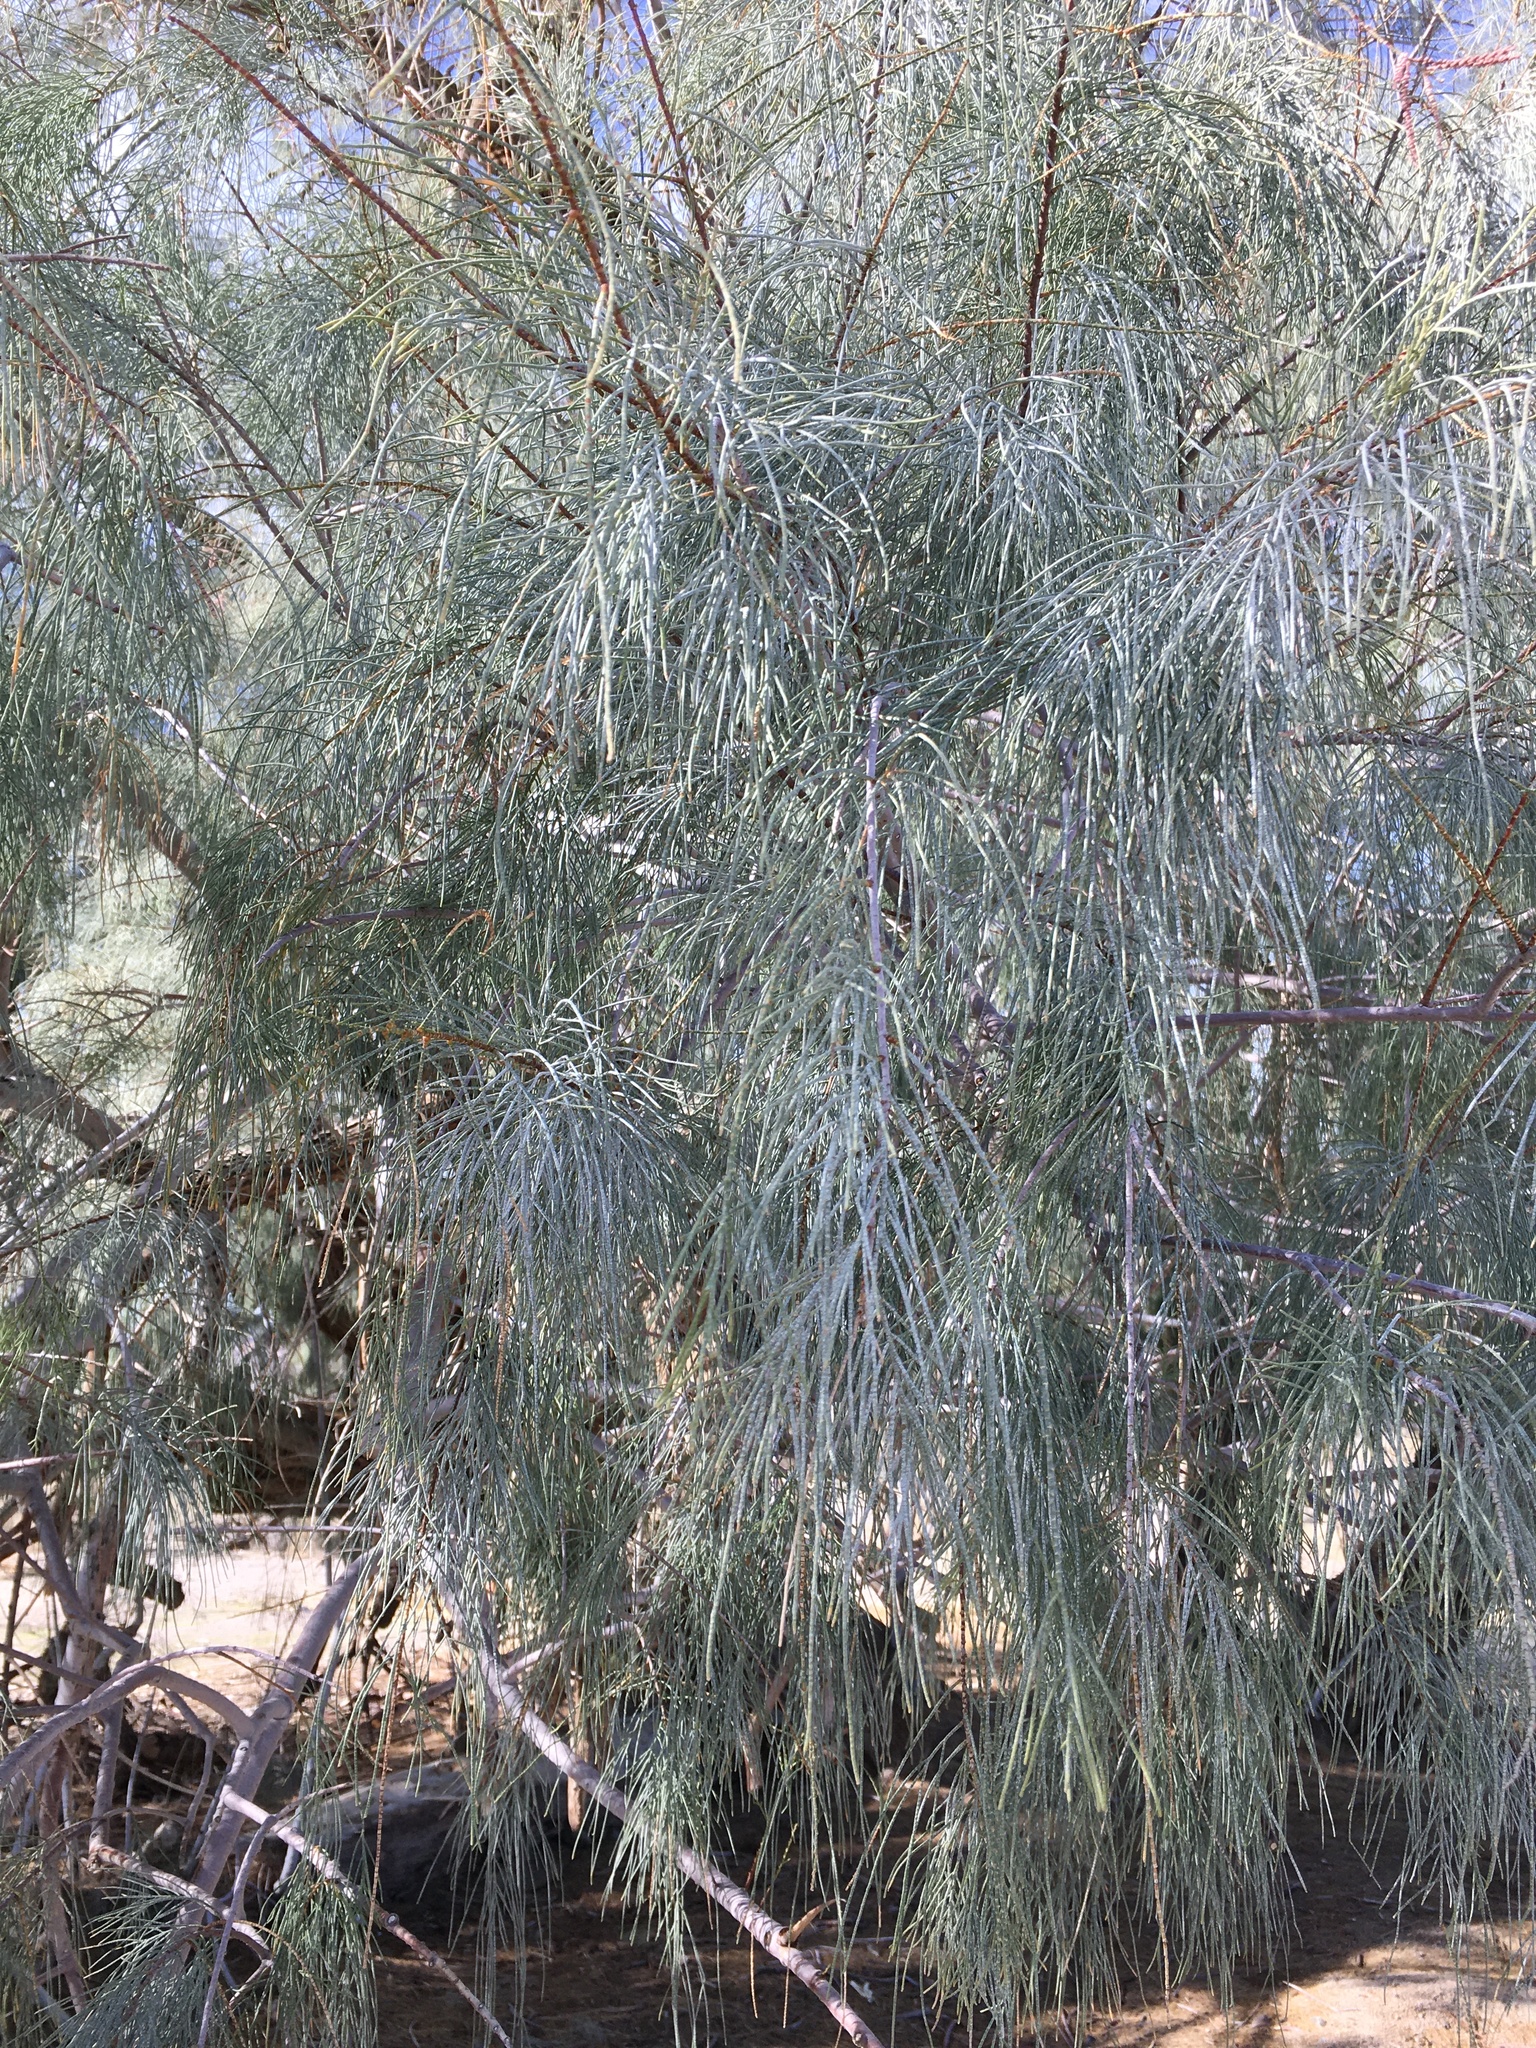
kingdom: Plantae
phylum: Tracheophyta
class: Magnoliopsida
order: Caryophyllales
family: Tamaricaceae
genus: Tamarix
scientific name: Tamarix aphylla
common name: Athel tamarisk
